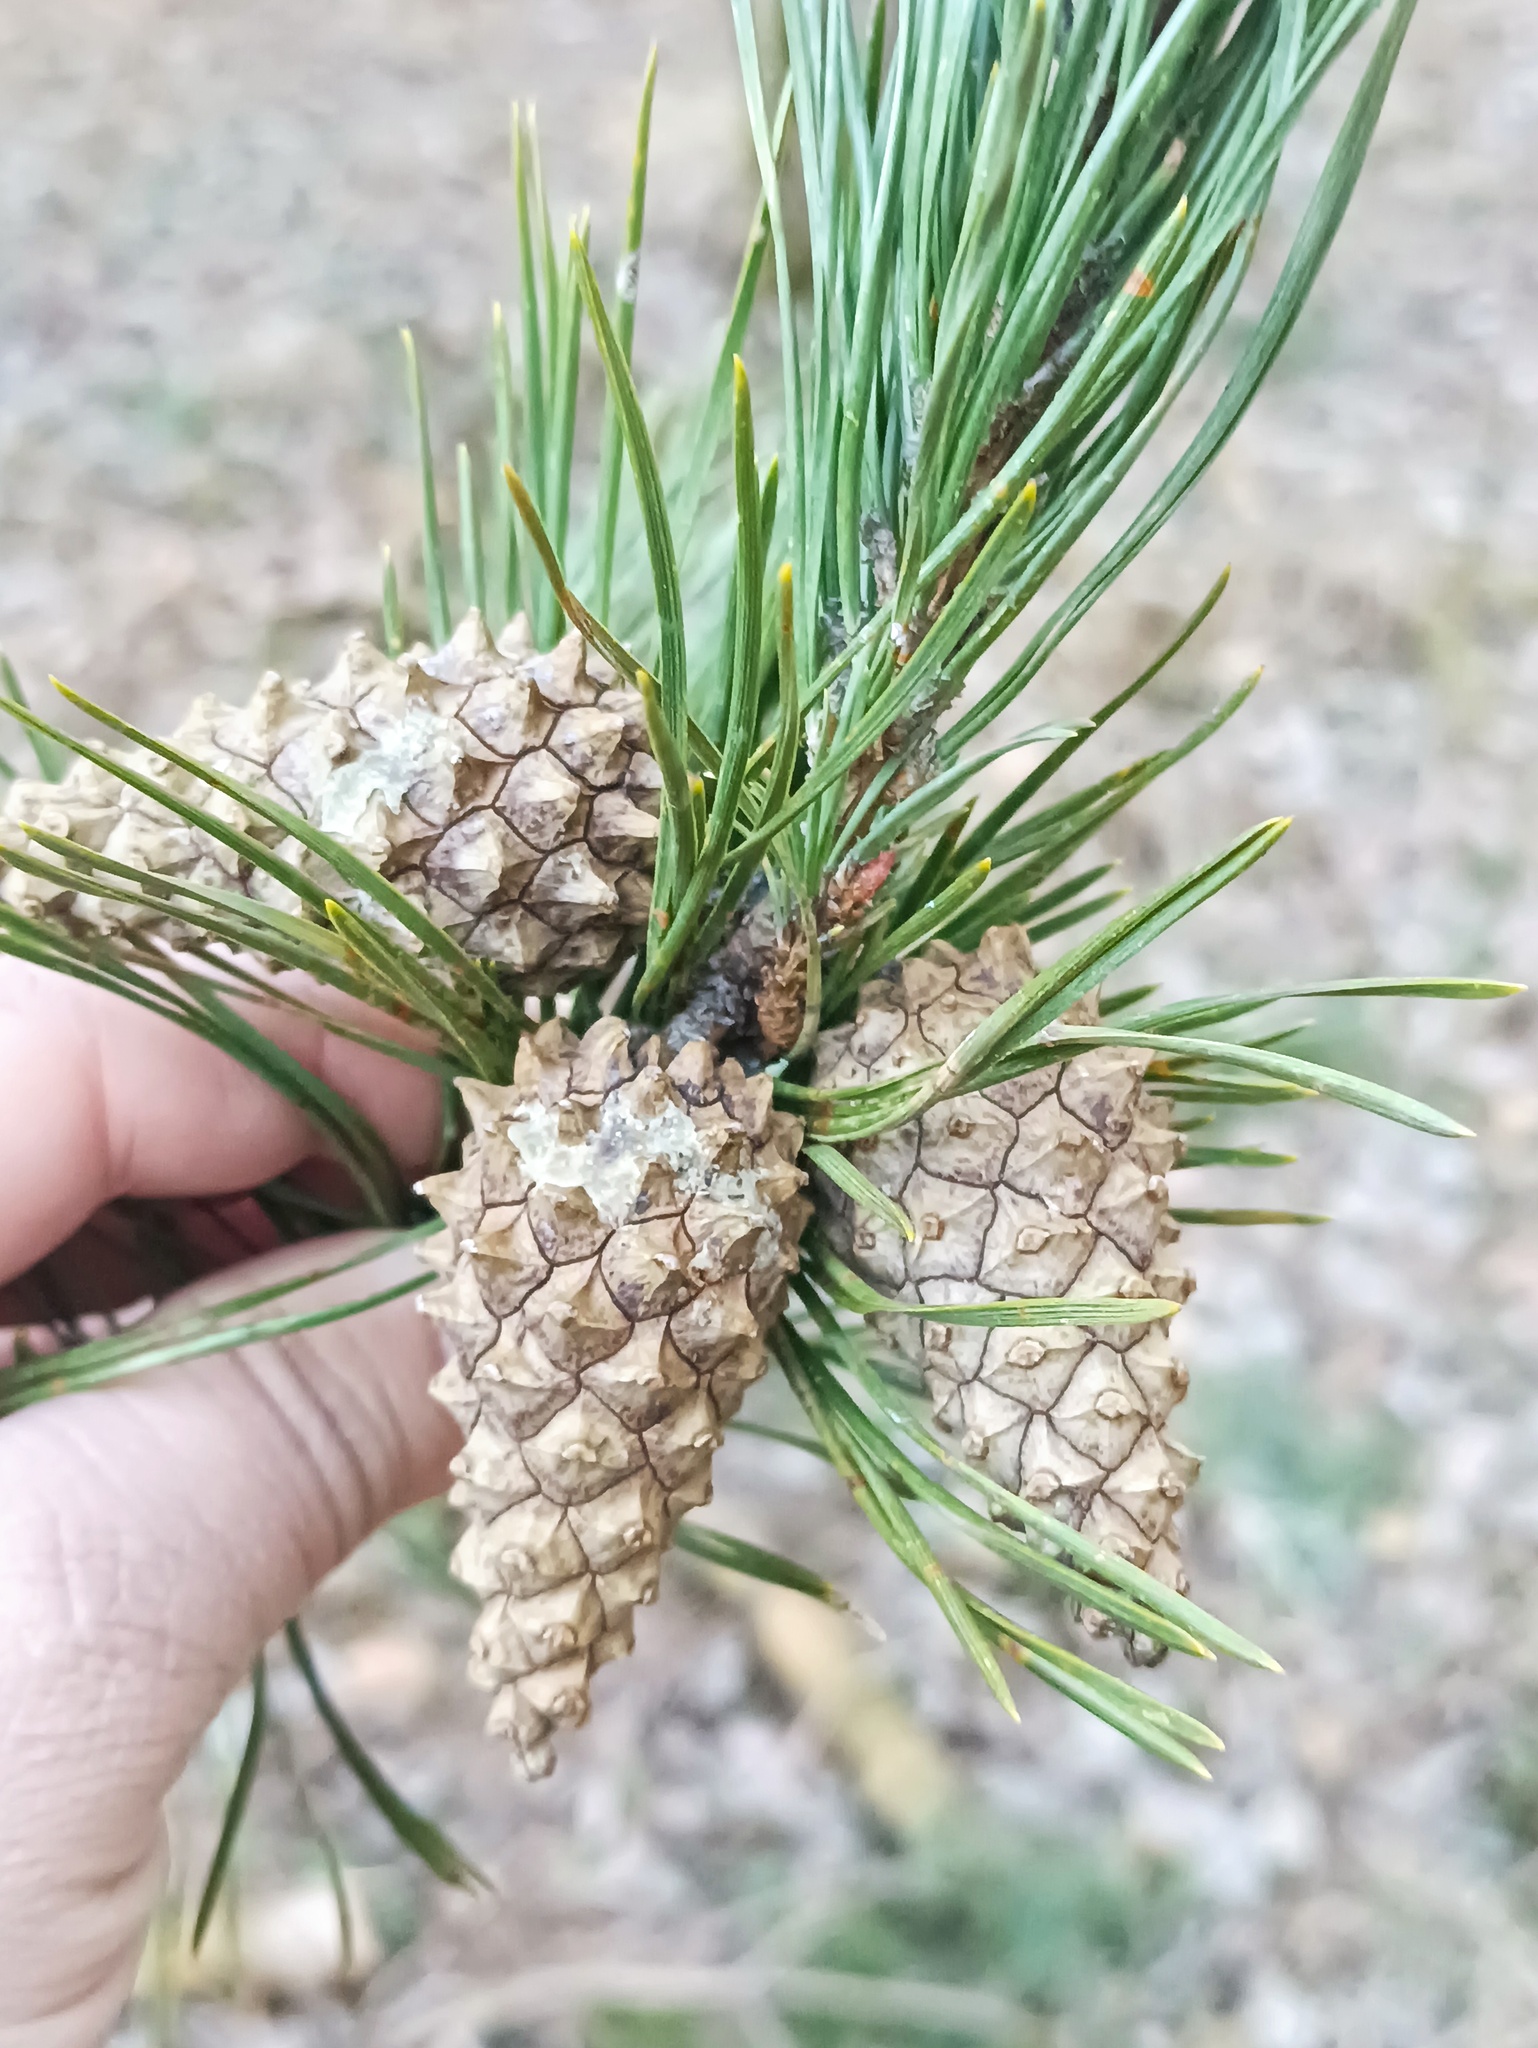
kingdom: Plantae
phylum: Tracheophyta
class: Pinopsida
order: Pinales
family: Pinaceae
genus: Pinus
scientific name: Pinus sylvestris
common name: Scots pine
